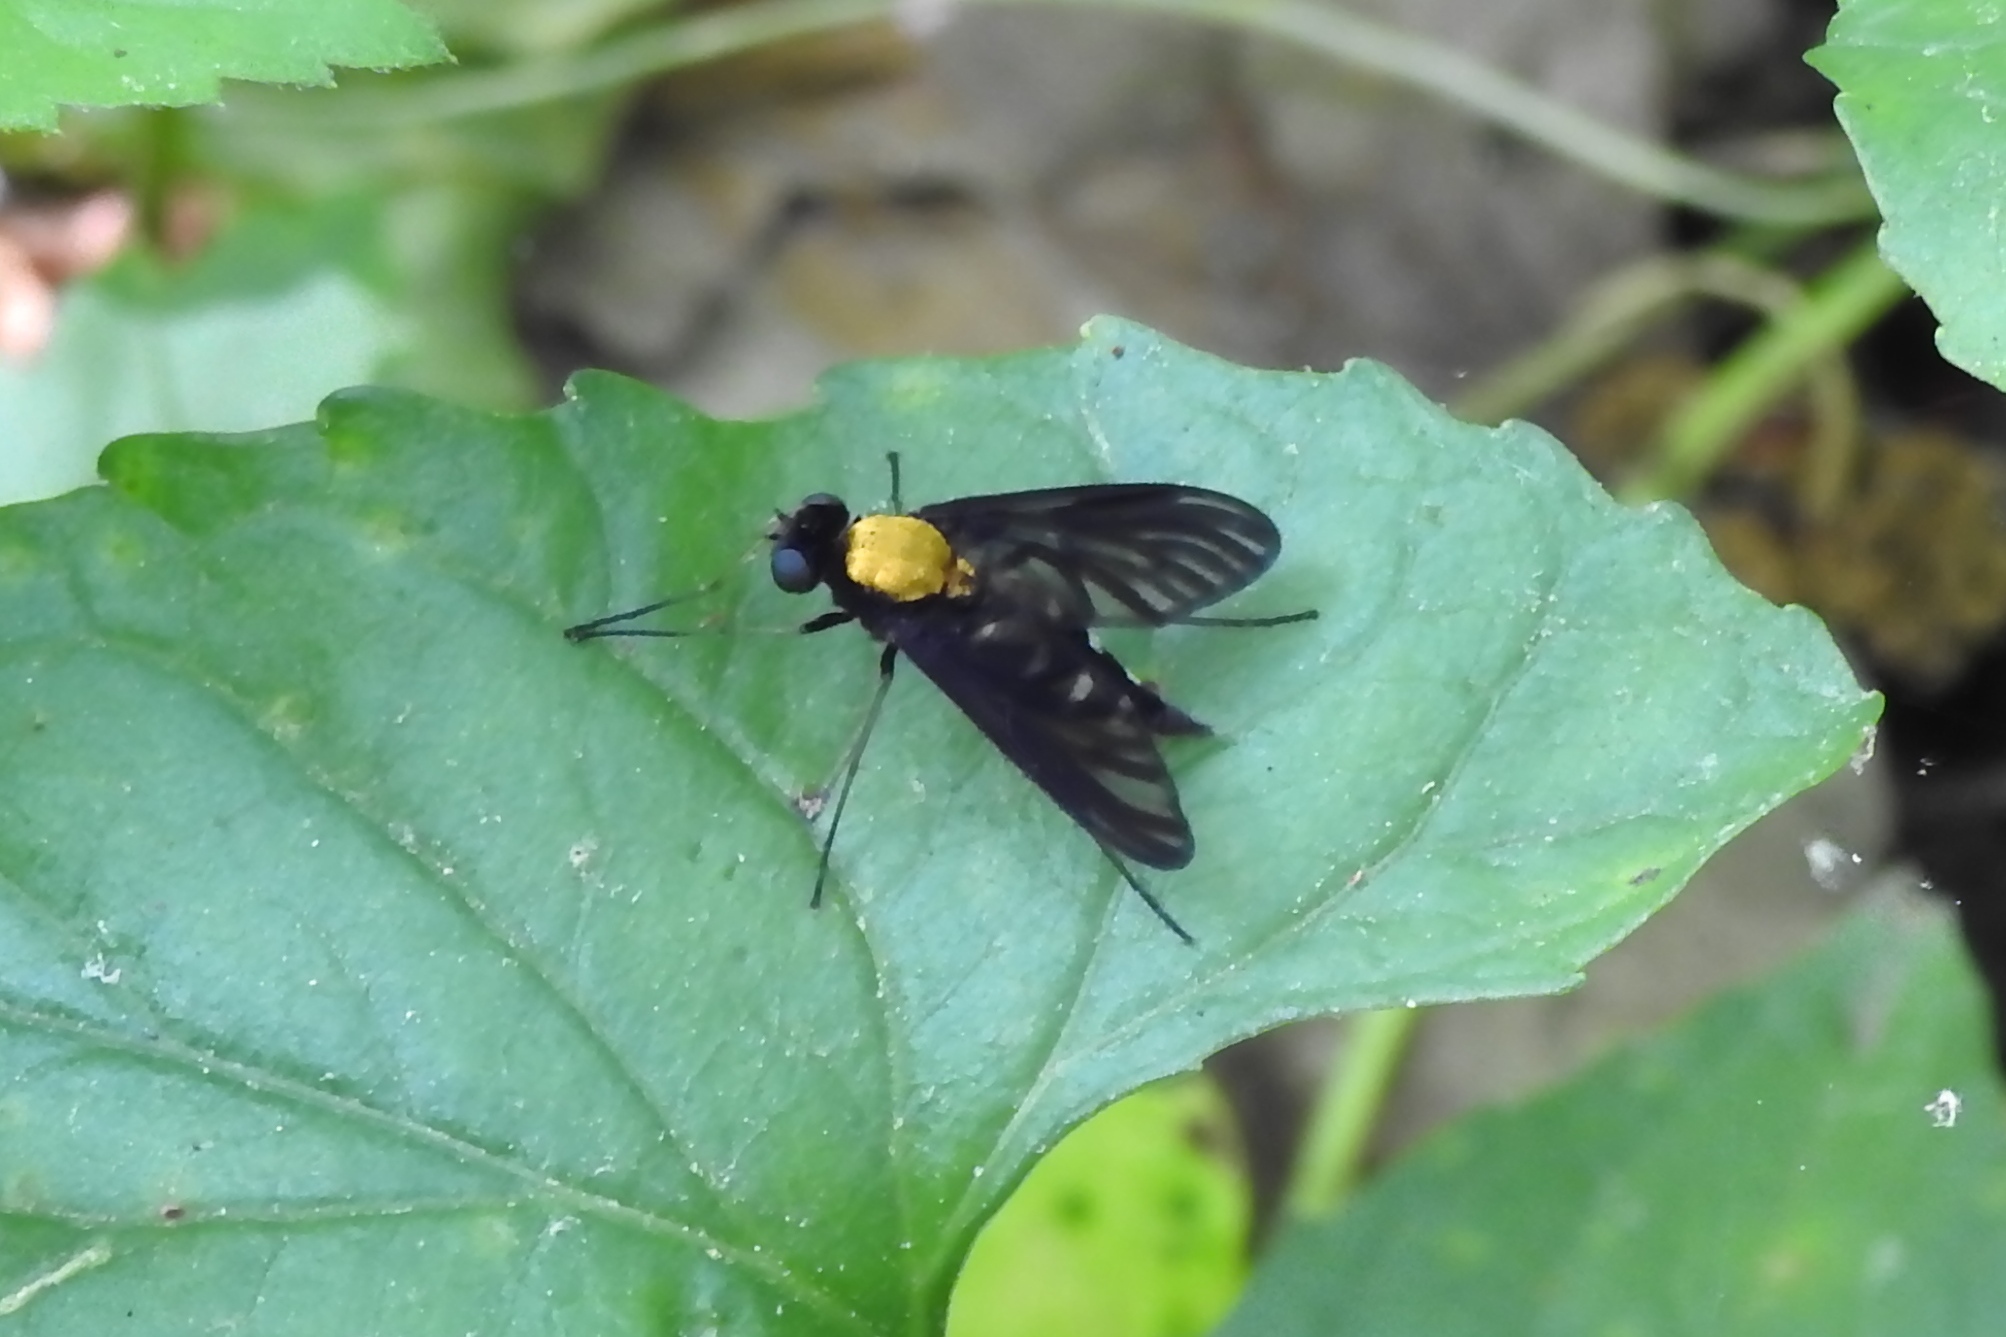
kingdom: Animalia
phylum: Arthropoda
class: Insecta
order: Diptera
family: Rhagionidae
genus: Chrysopilus
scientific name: Chrysopilus thoracicus
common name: Golden-backed snipe fly
